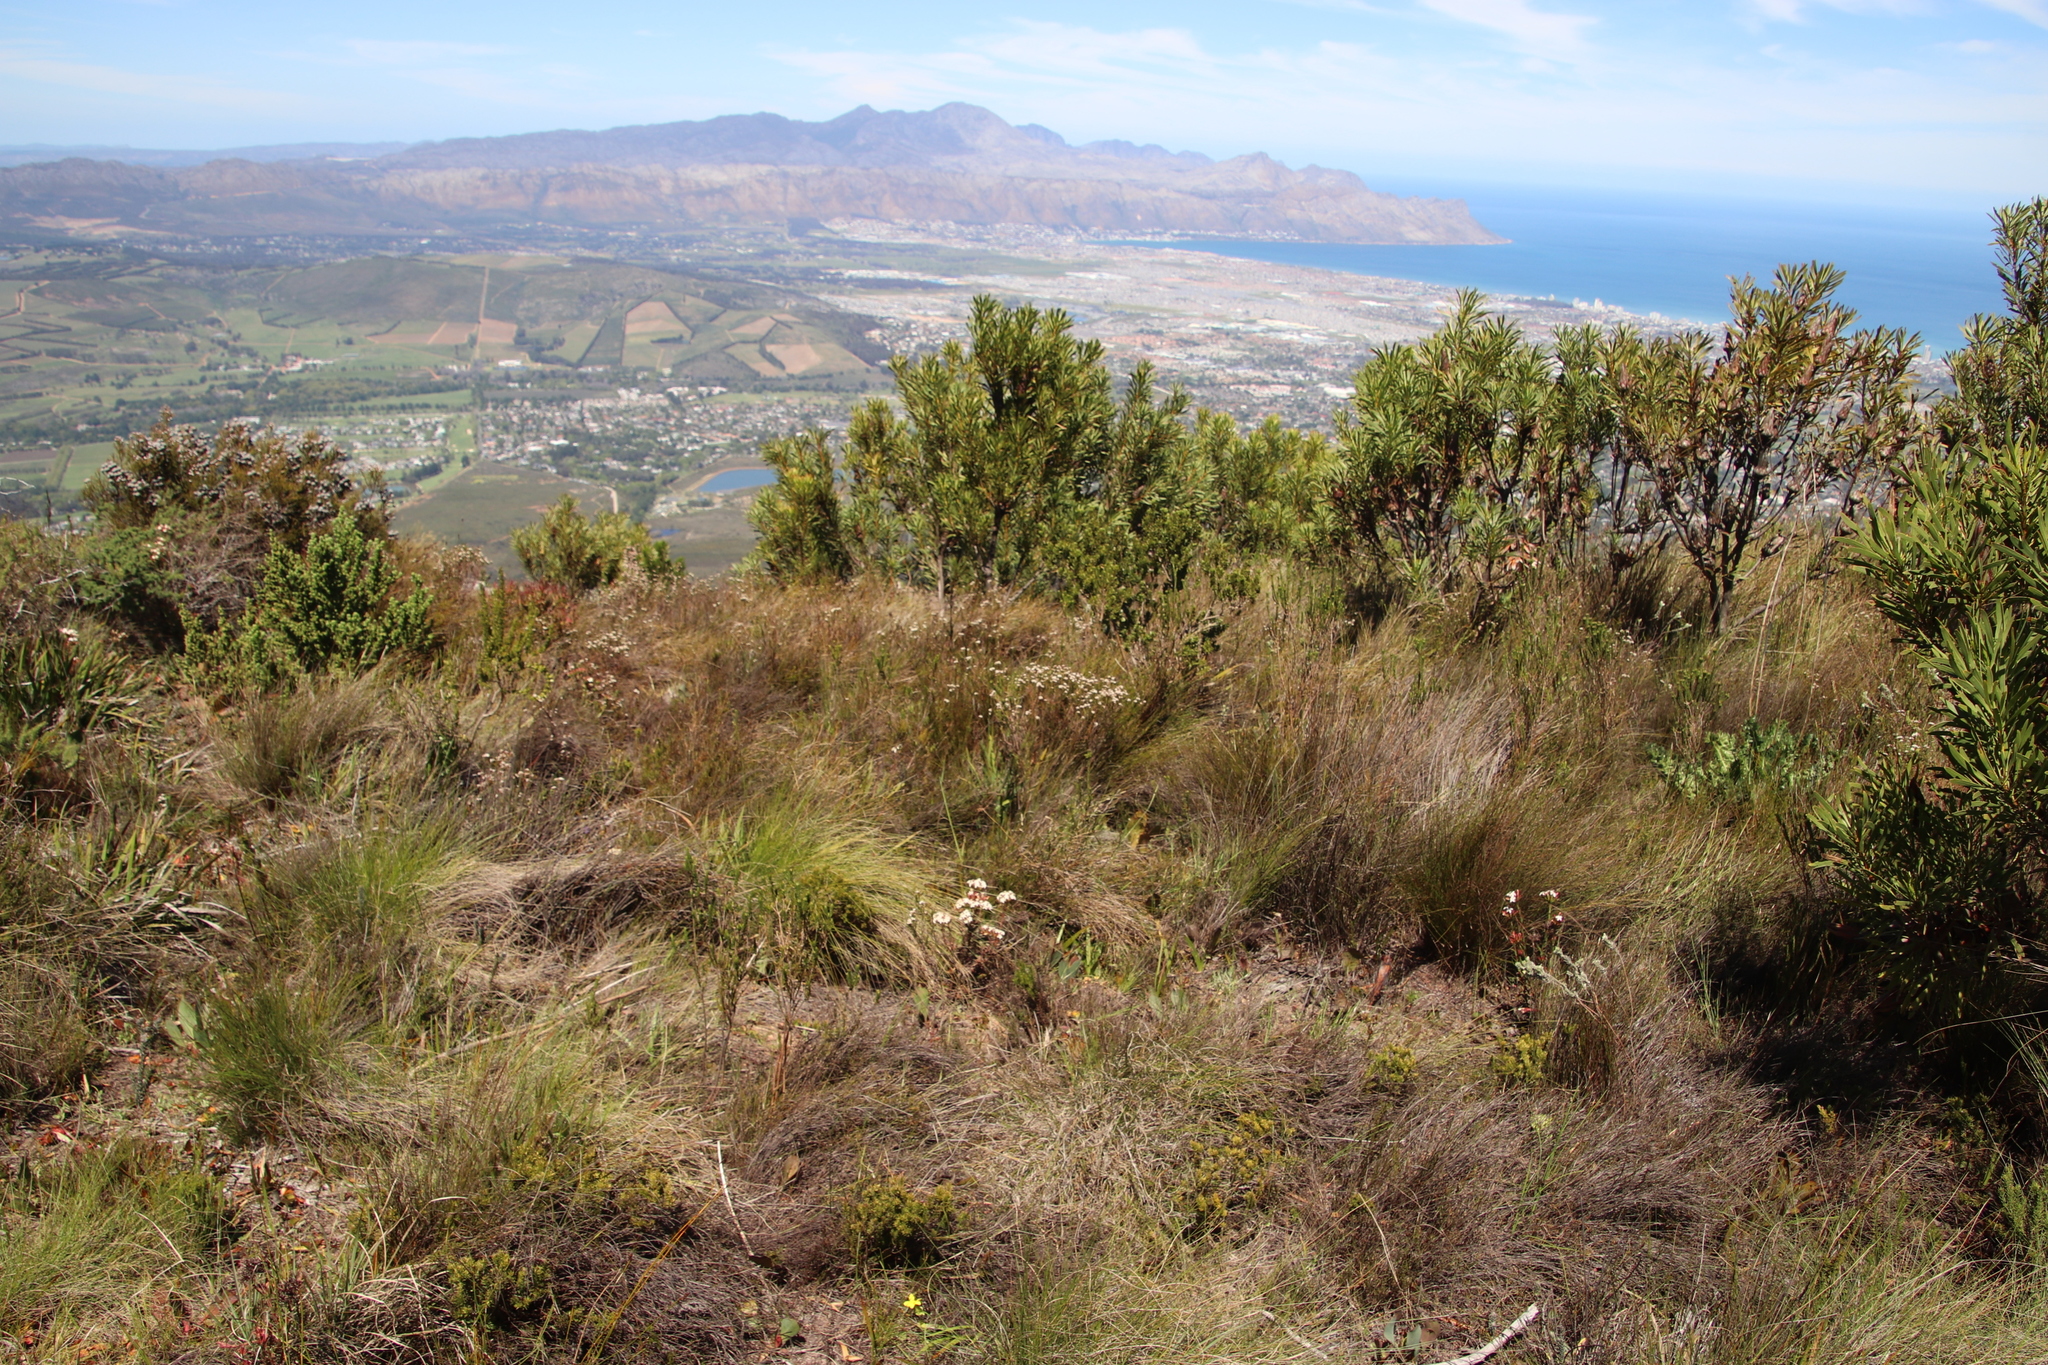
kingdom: Plantae
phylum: Tracheophyta
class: Magnoliopsida
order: Proteales
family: Proteaceae
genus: Protea
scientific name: Protea repens
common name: Sugarbush
